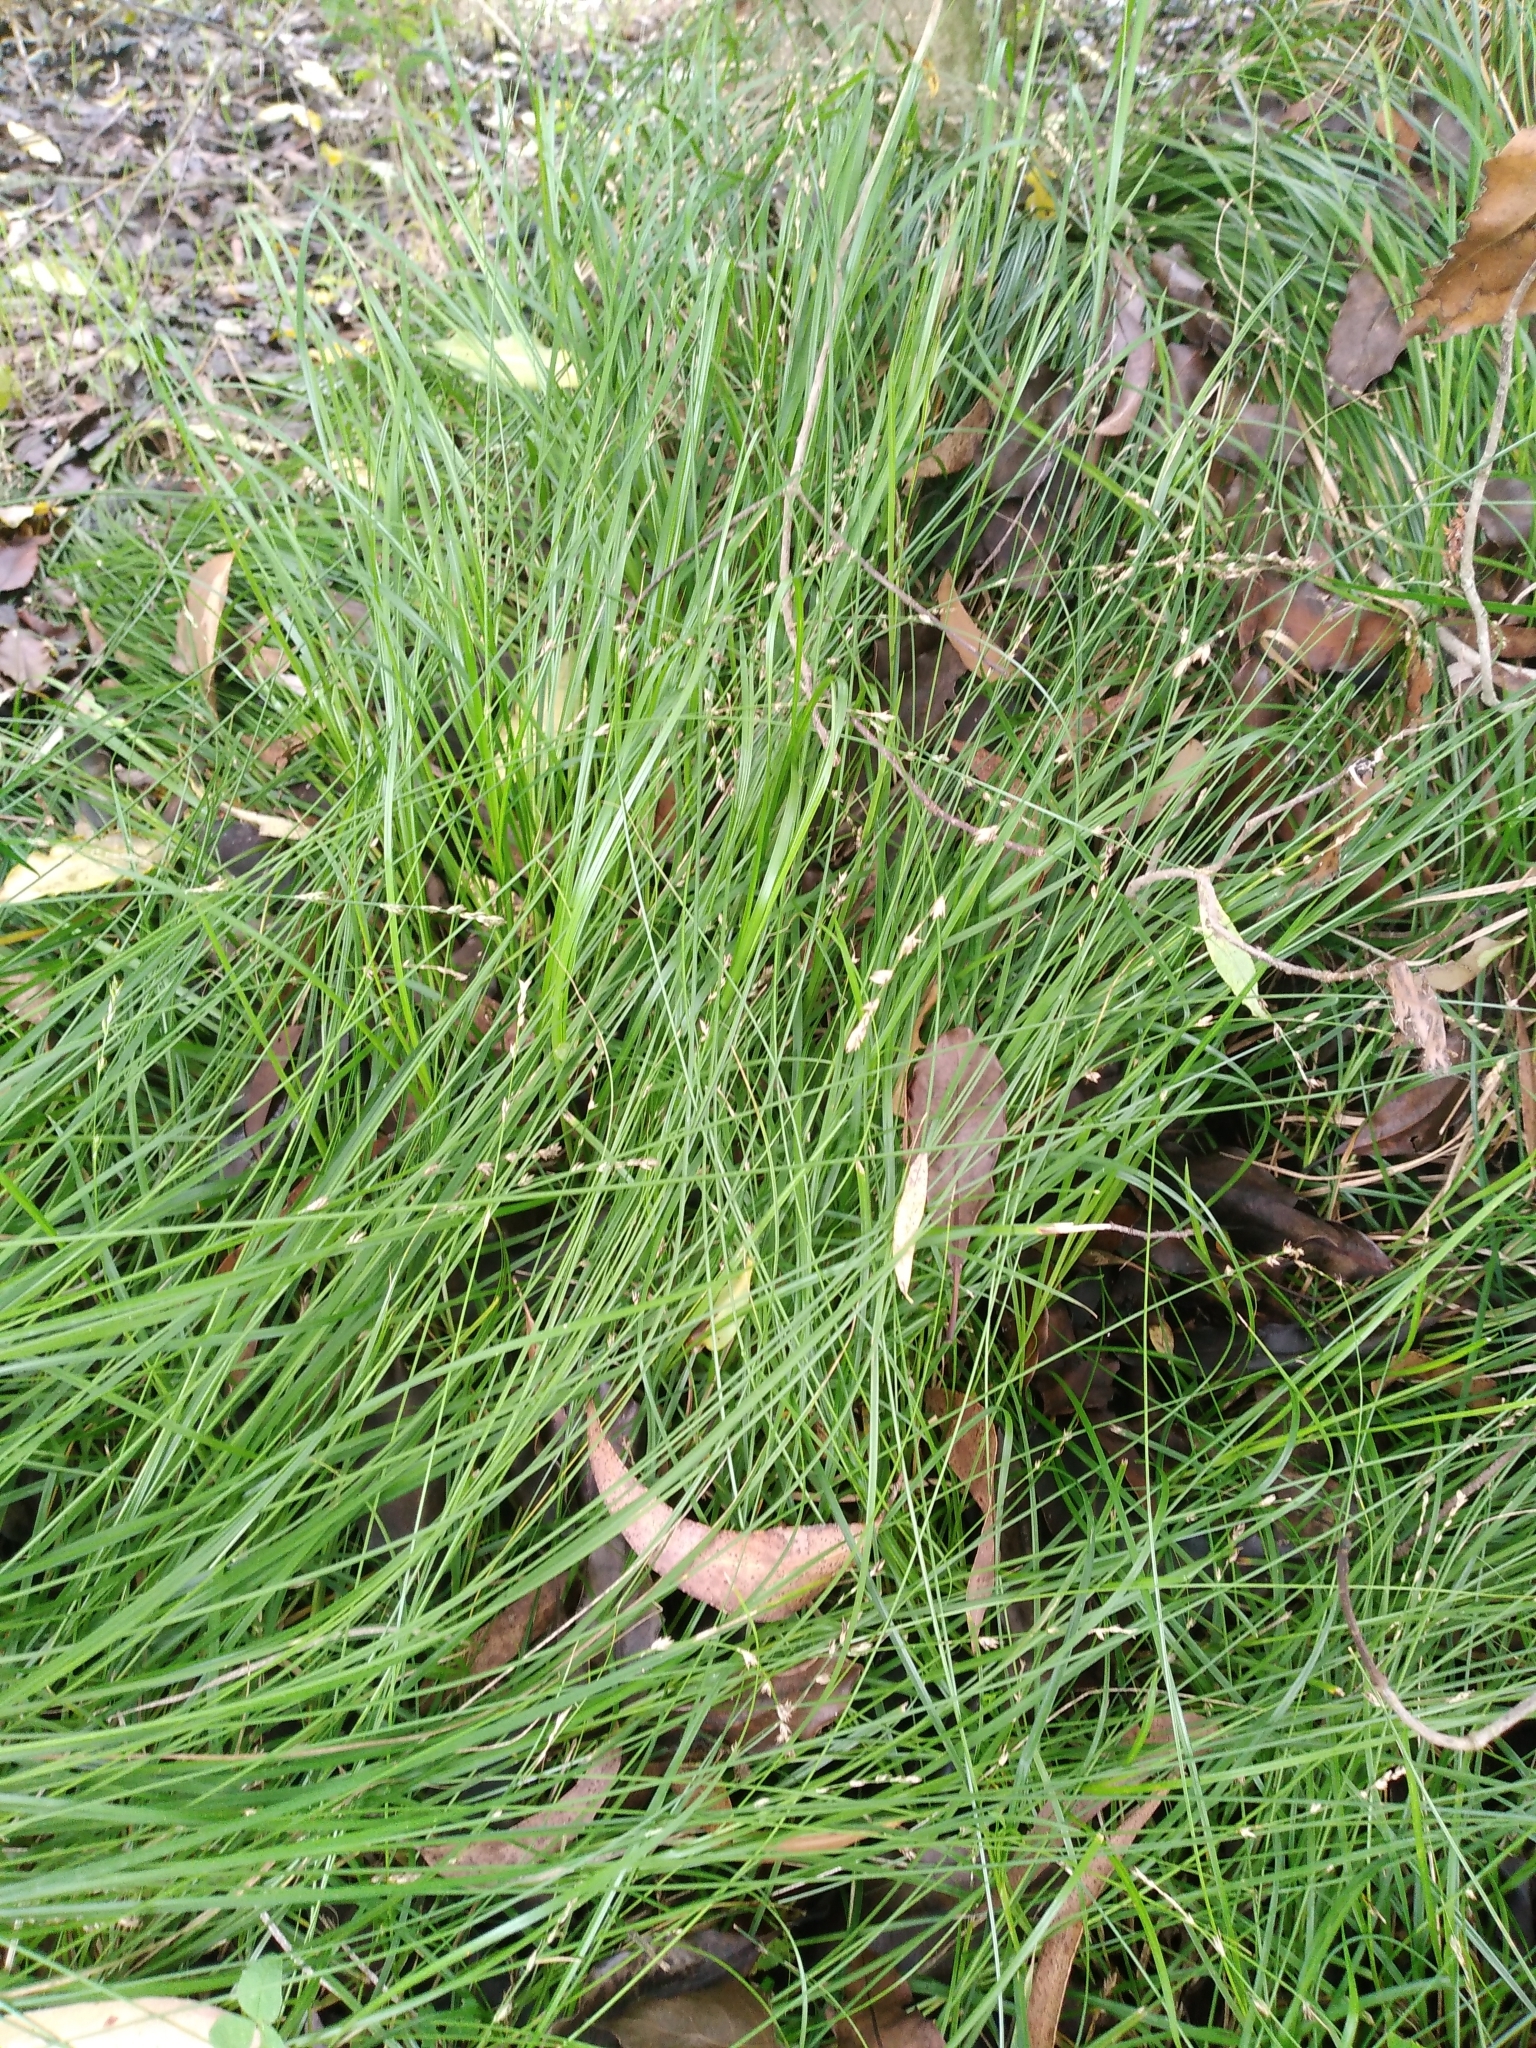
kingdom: Plantae
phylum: Tracheophyta
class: Liliopsida
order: Poales
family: Cyperaceae
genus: Carex
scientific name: Carex divulsa
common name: Grassland sedge
